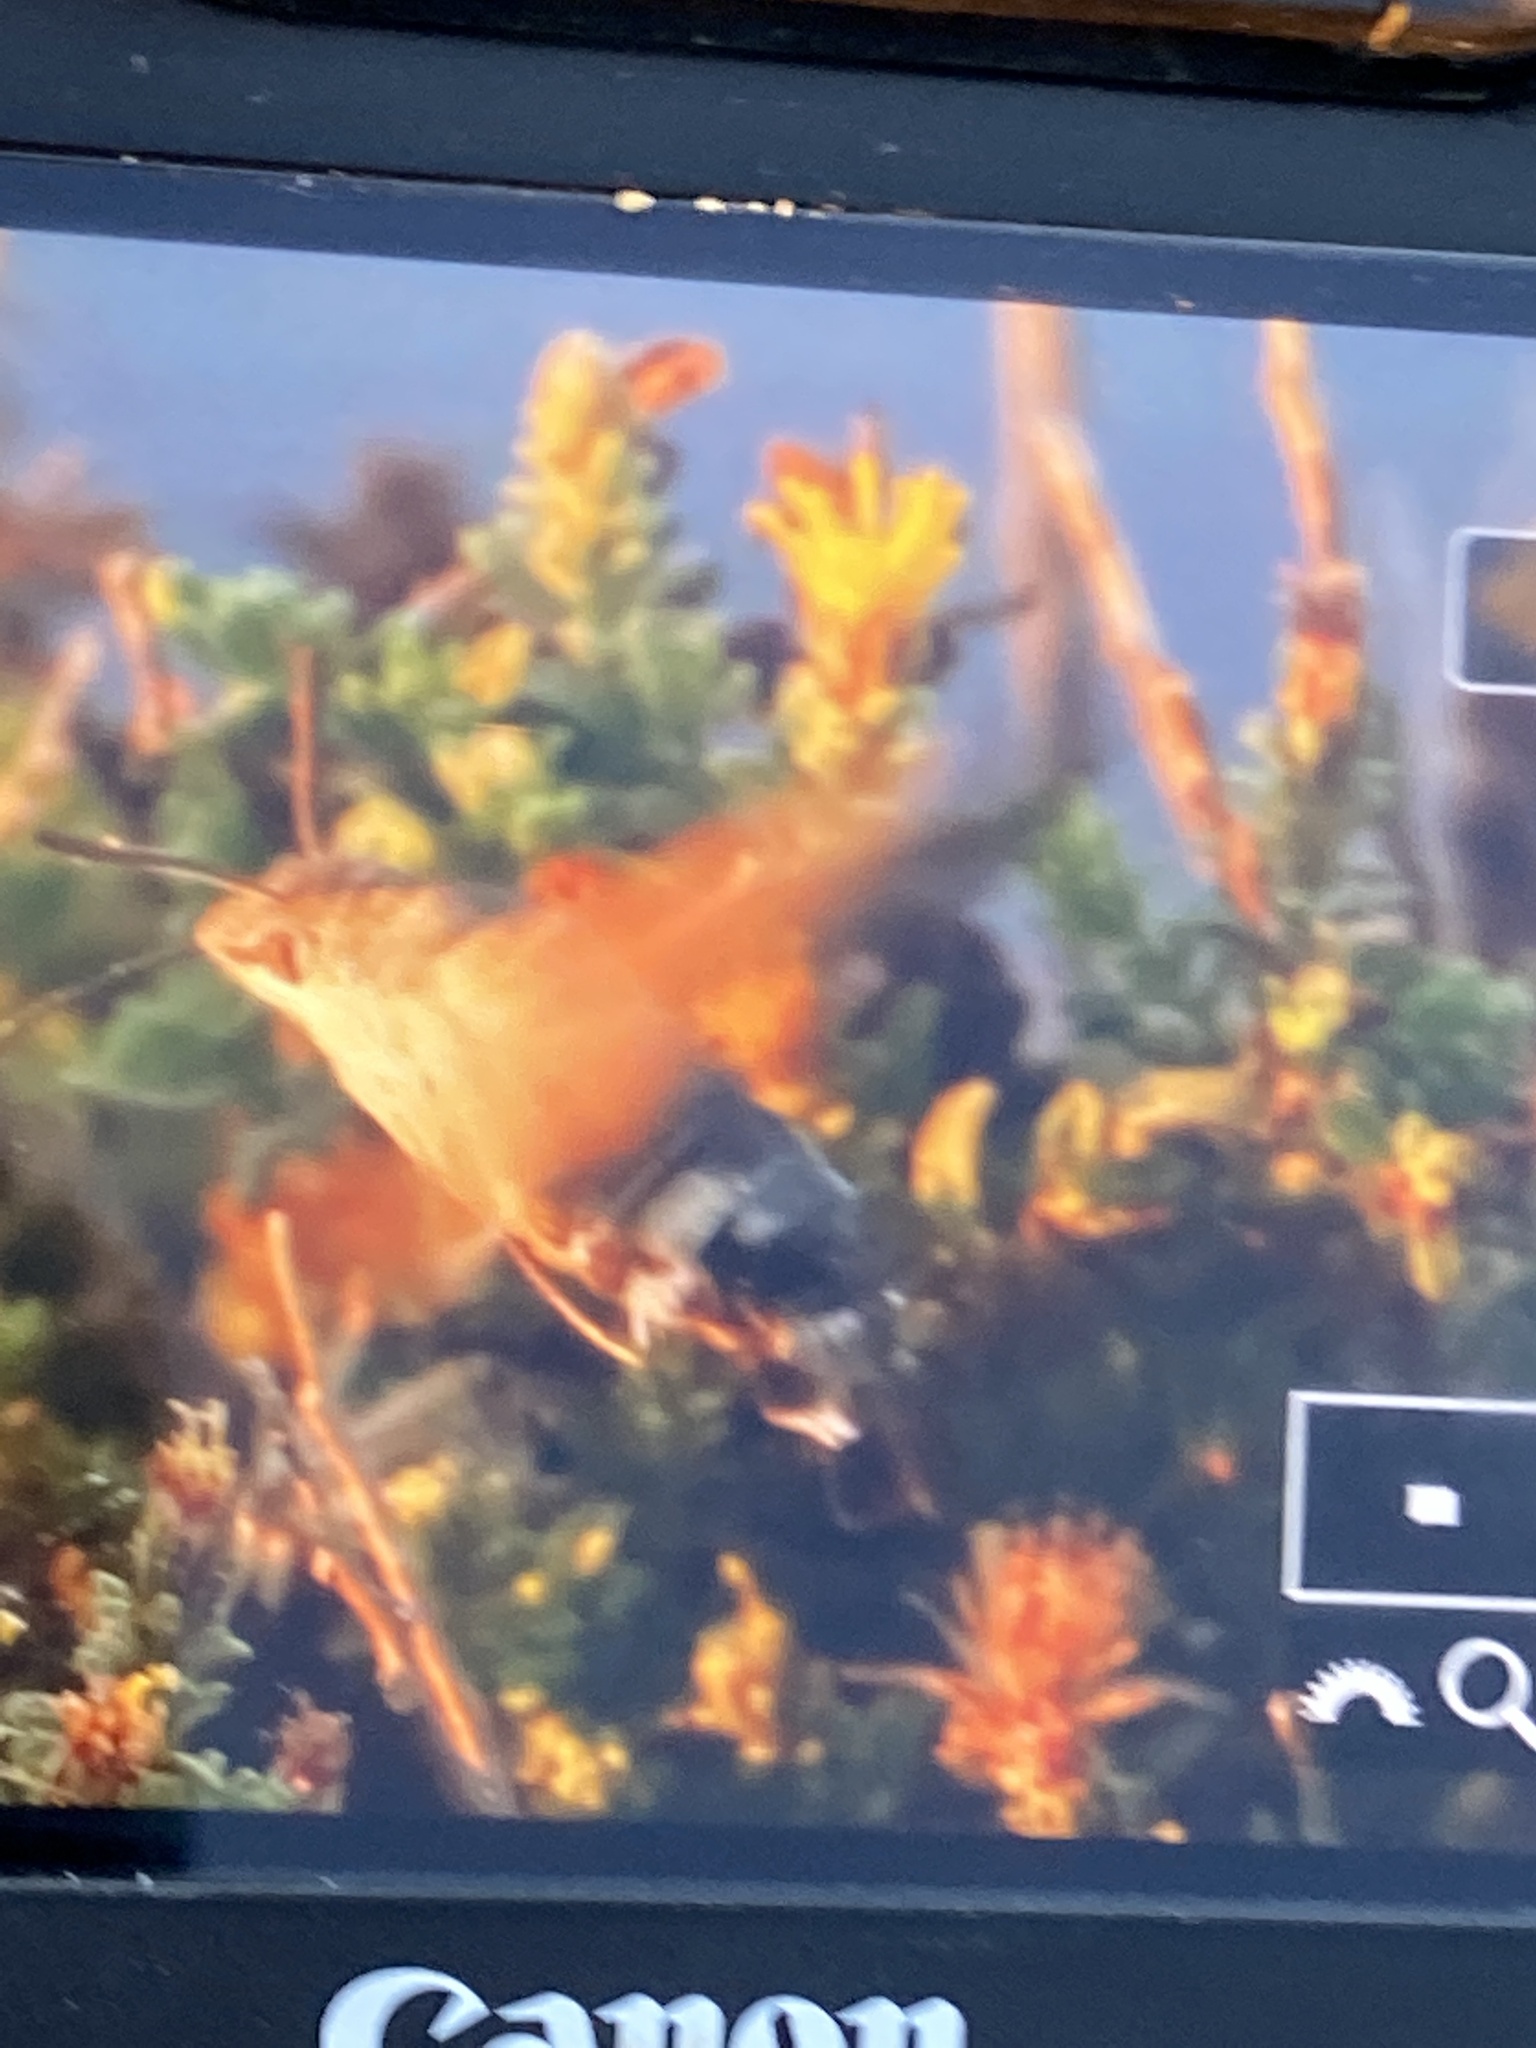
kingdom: Animalia
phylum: Arthropoda
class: Insecta
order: Lepidoptera
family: Sphingidae
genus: Macroglossum
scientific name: Macroglossum stellatarum
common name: Humming-bird hawk-moth
